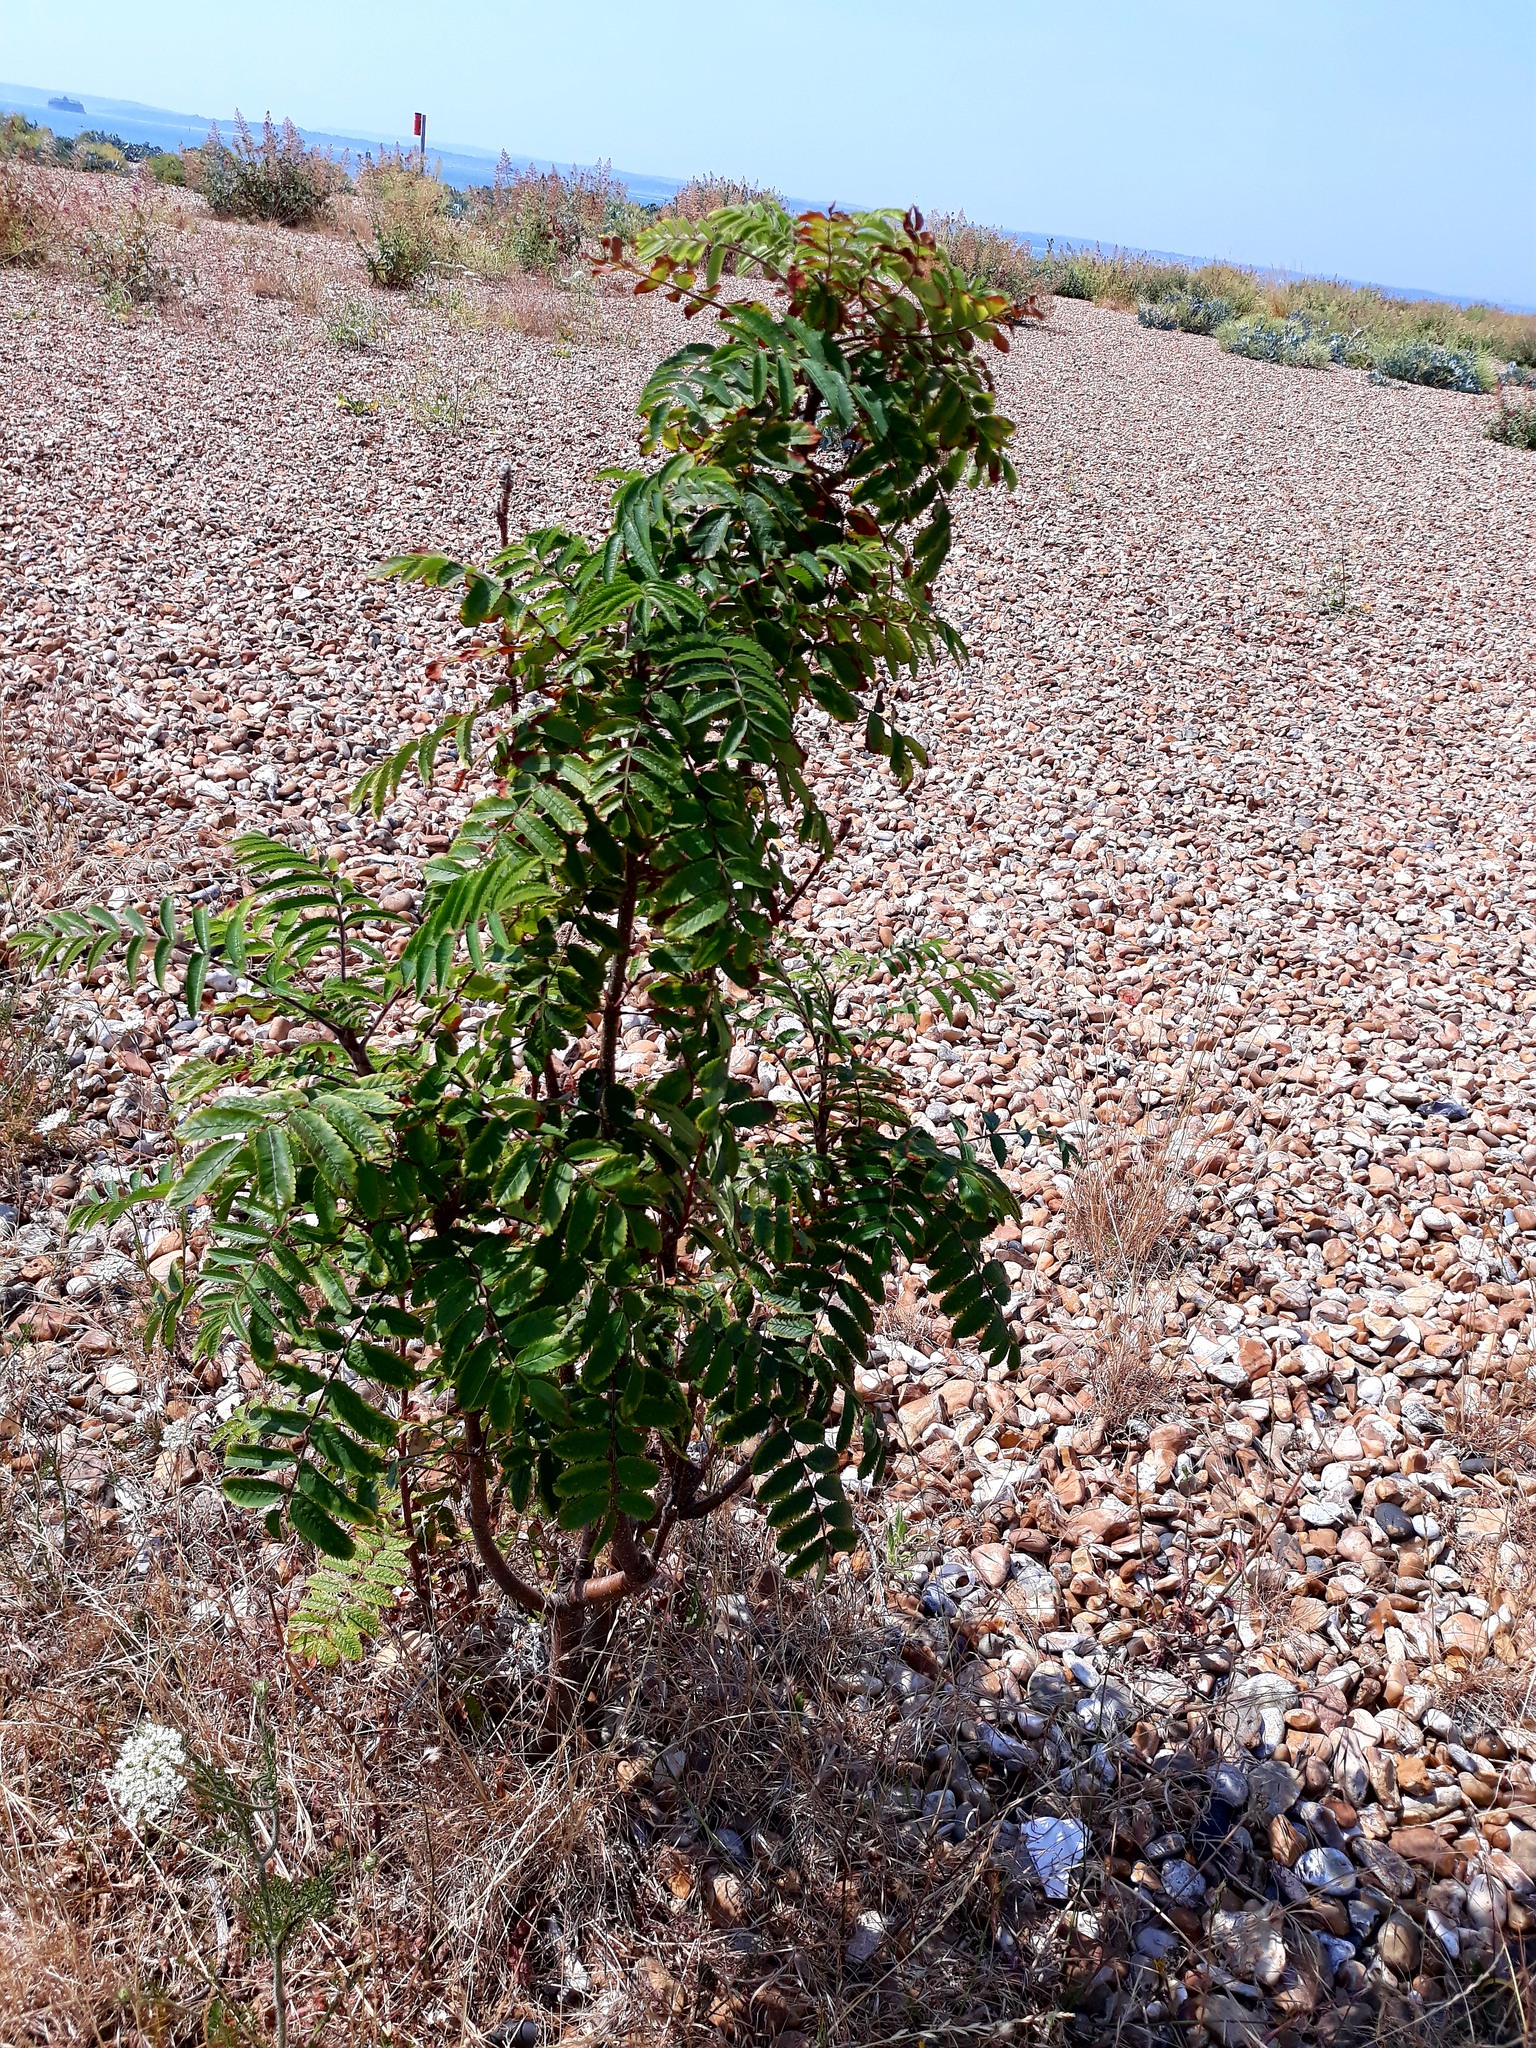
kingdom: Plantae
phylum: Tracheophyta
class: Magnoliopsida
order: Rosales
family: Rosaceae
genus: Sorbus
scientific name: Sorbus aucuparia
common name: Rowan
